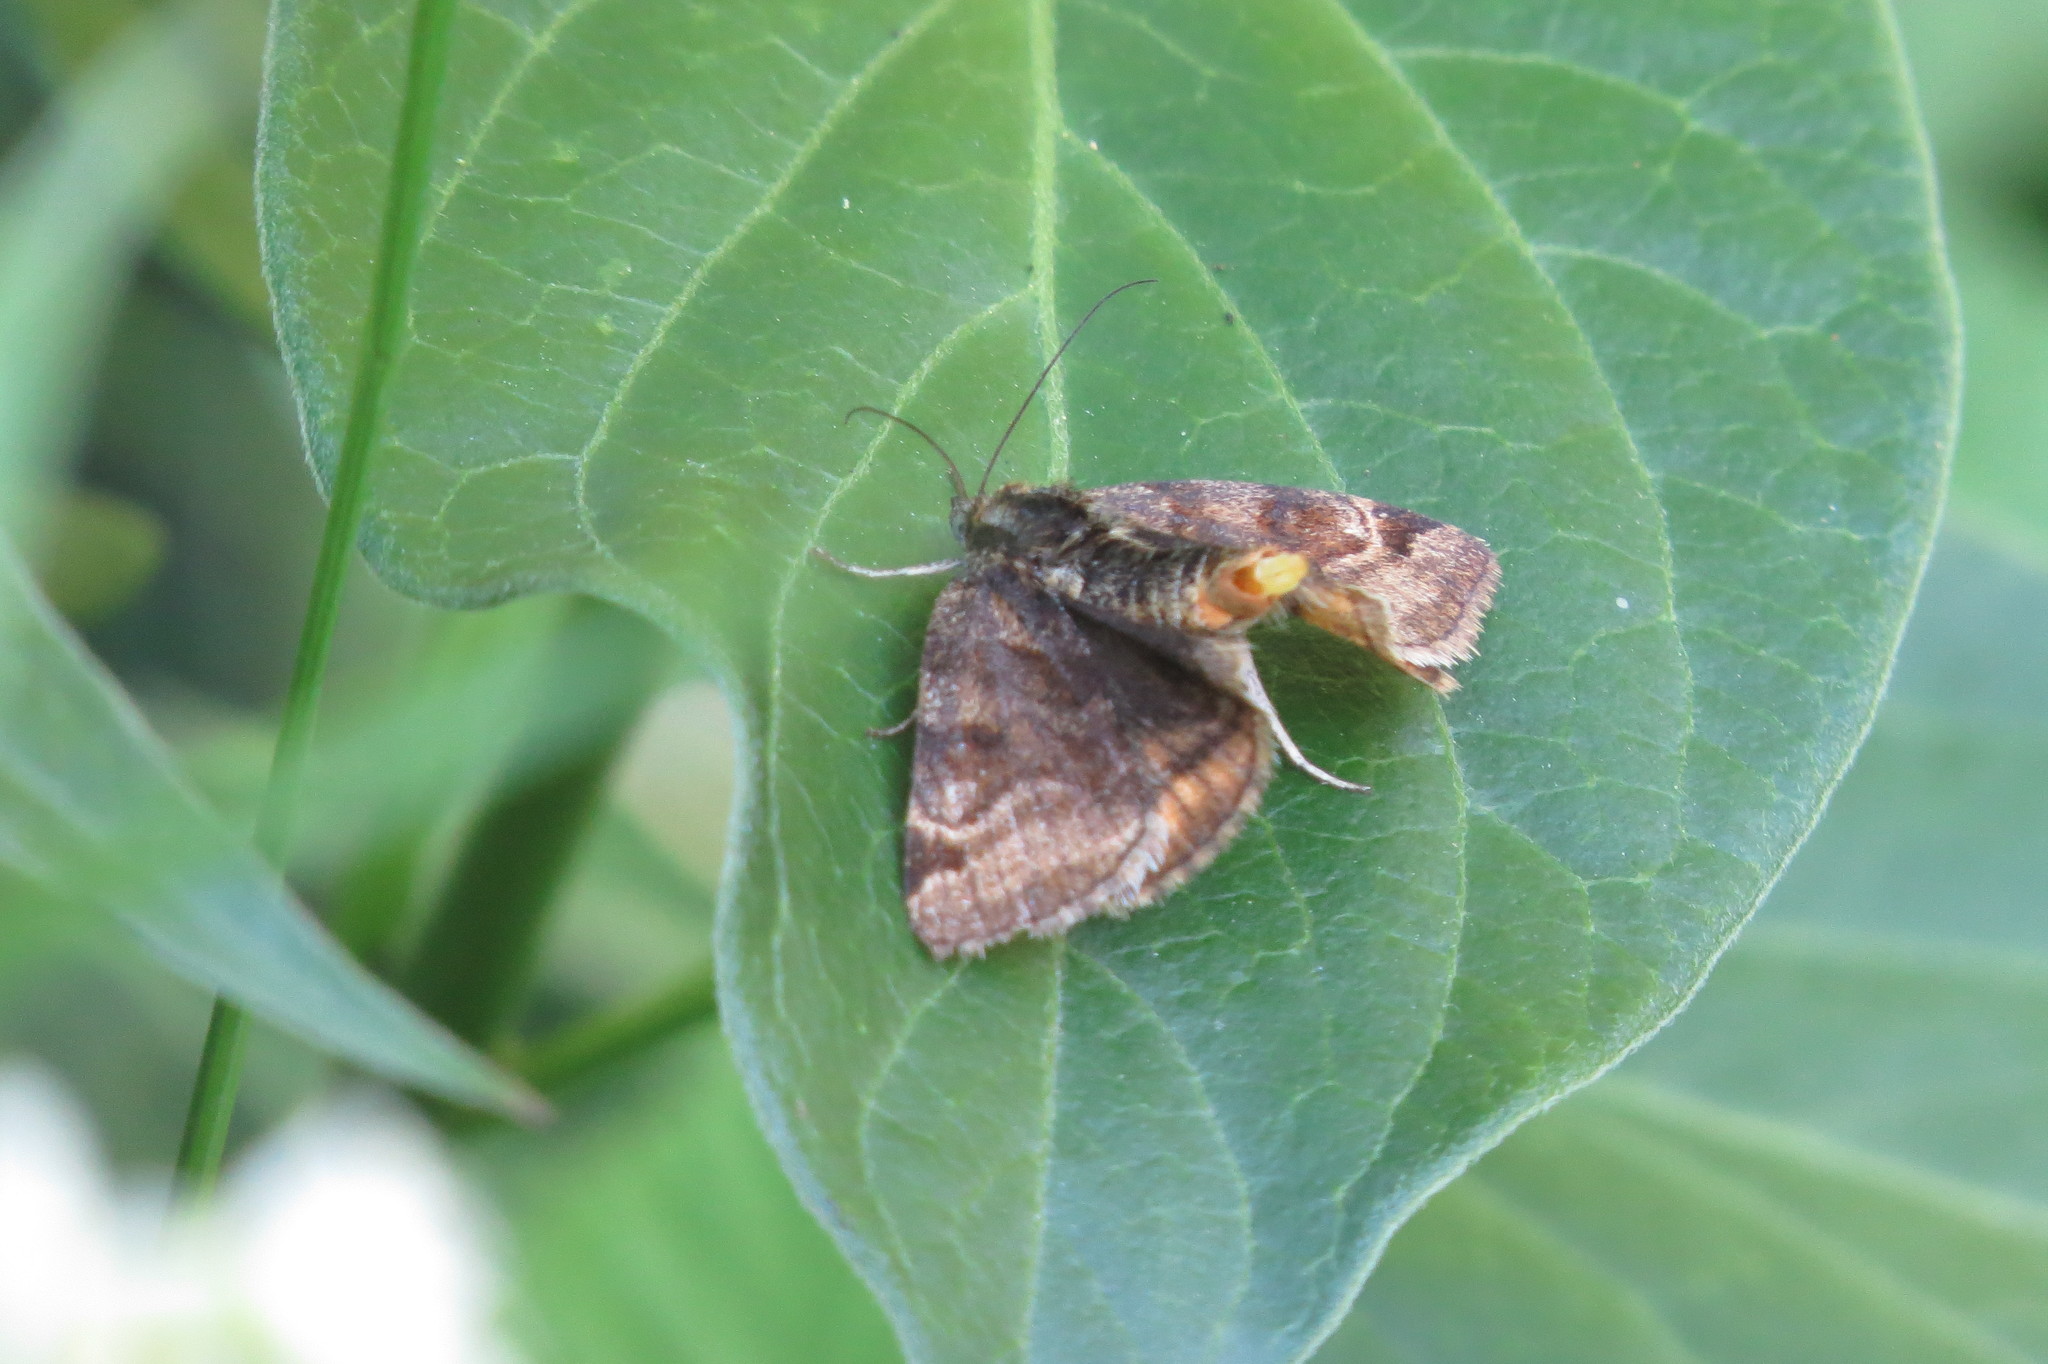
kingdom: Animalia
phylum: Arthropoda
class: Insecta
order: Lepidoptera
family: Erebidae
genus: Euclidia
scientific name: Euclidia glyphica
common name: Burnet companion
